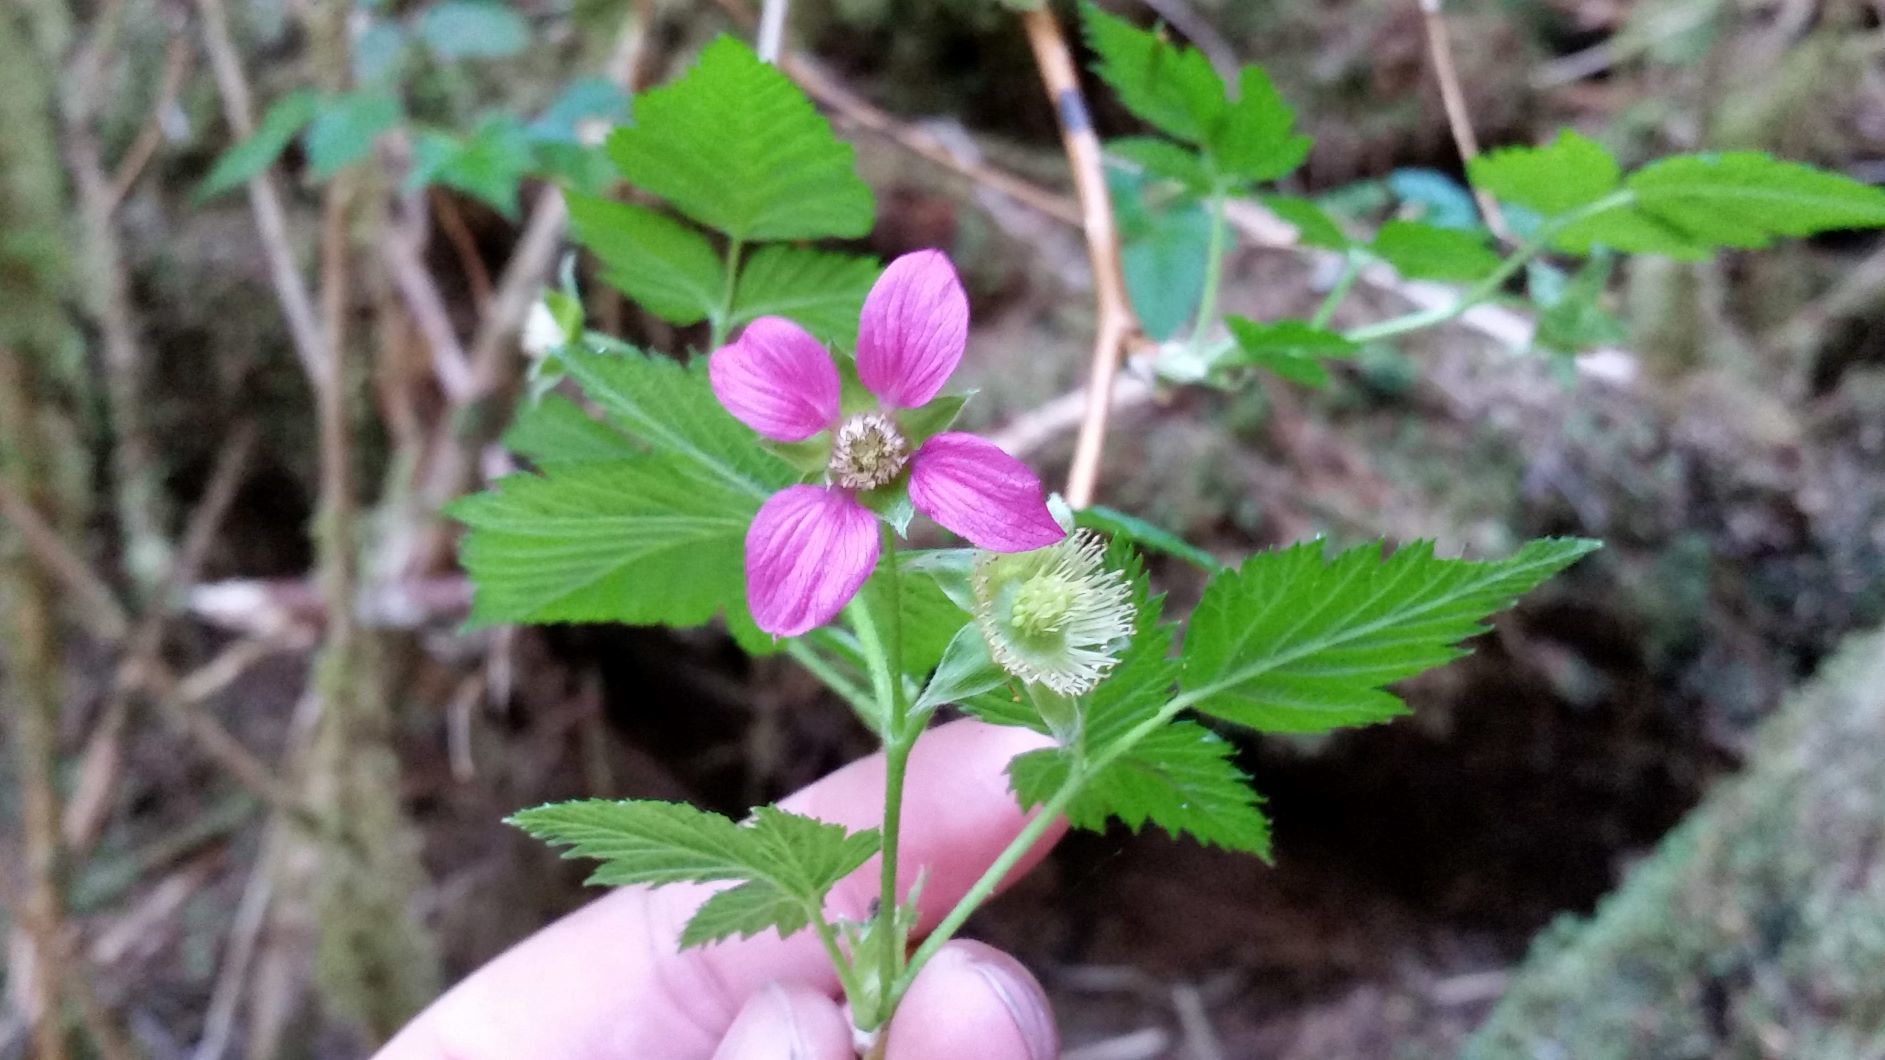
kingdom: Plantae
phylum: Tracheophyta
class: Magnoliopsida
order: Rosales
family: Rosaceae
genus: Rubus
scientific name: Rubus spectabilis
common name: Salmonberry
